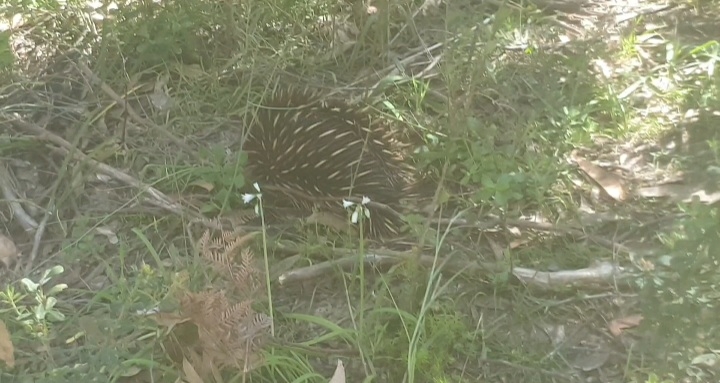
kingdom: Animalia
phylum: Chordata
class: Mammalia
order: Monotremata
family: Tachyglossidae
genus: Tachyglossus
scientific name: Tachyglossus aculeatus
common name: Short-beaked echidna
